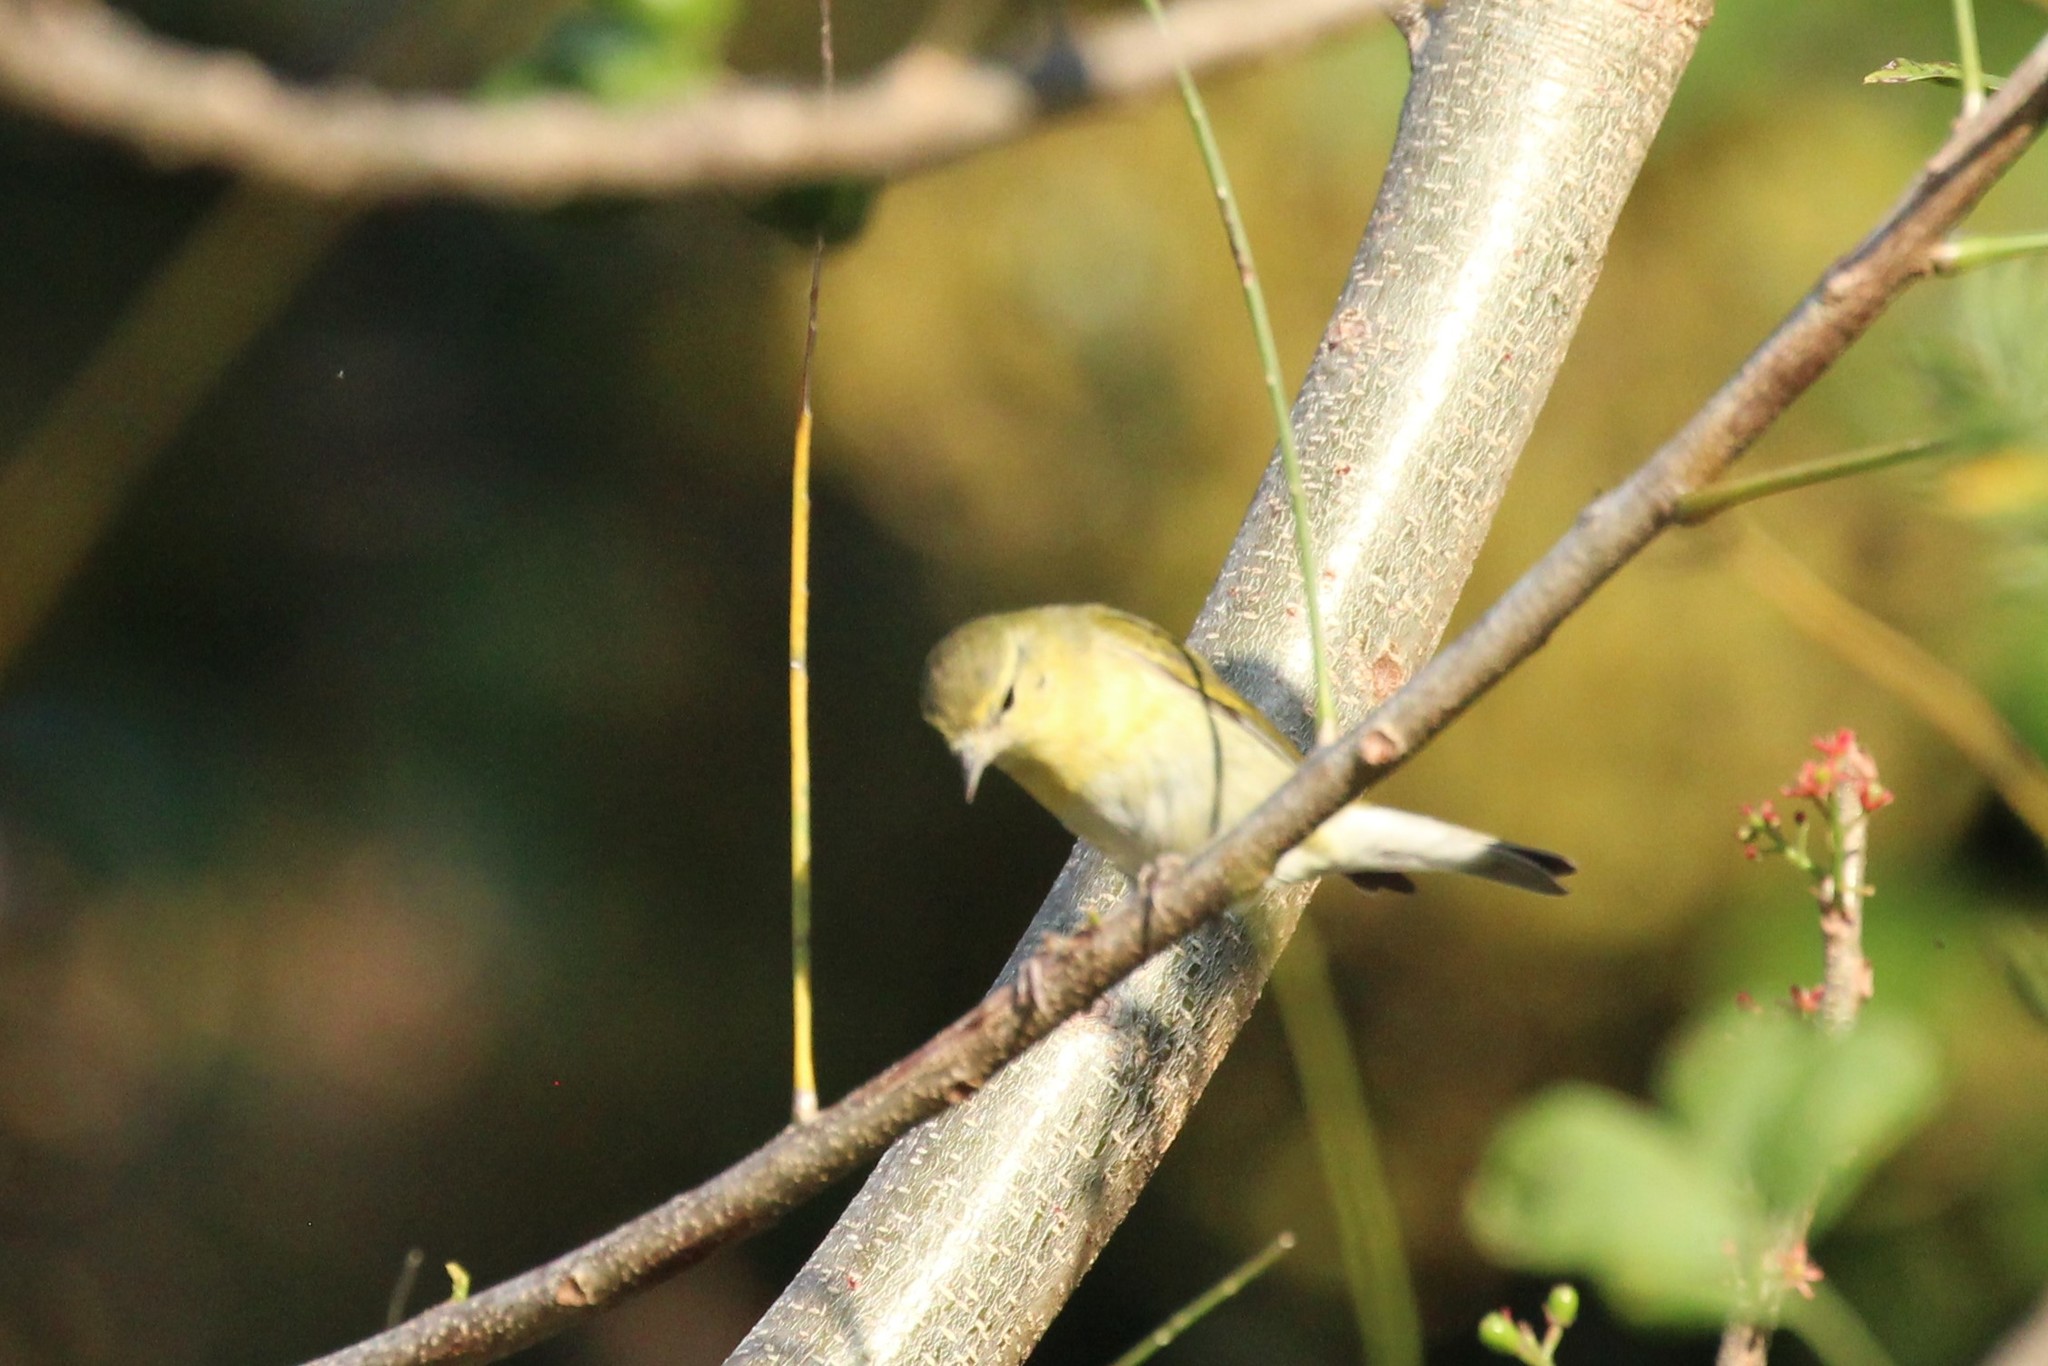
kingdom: Animalia
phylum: Chordata
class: Aves
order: Passeriformes
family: Parulidae
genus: Leiothlypis
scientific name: Leiothlypis peregrina
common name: Tennessee warbler
